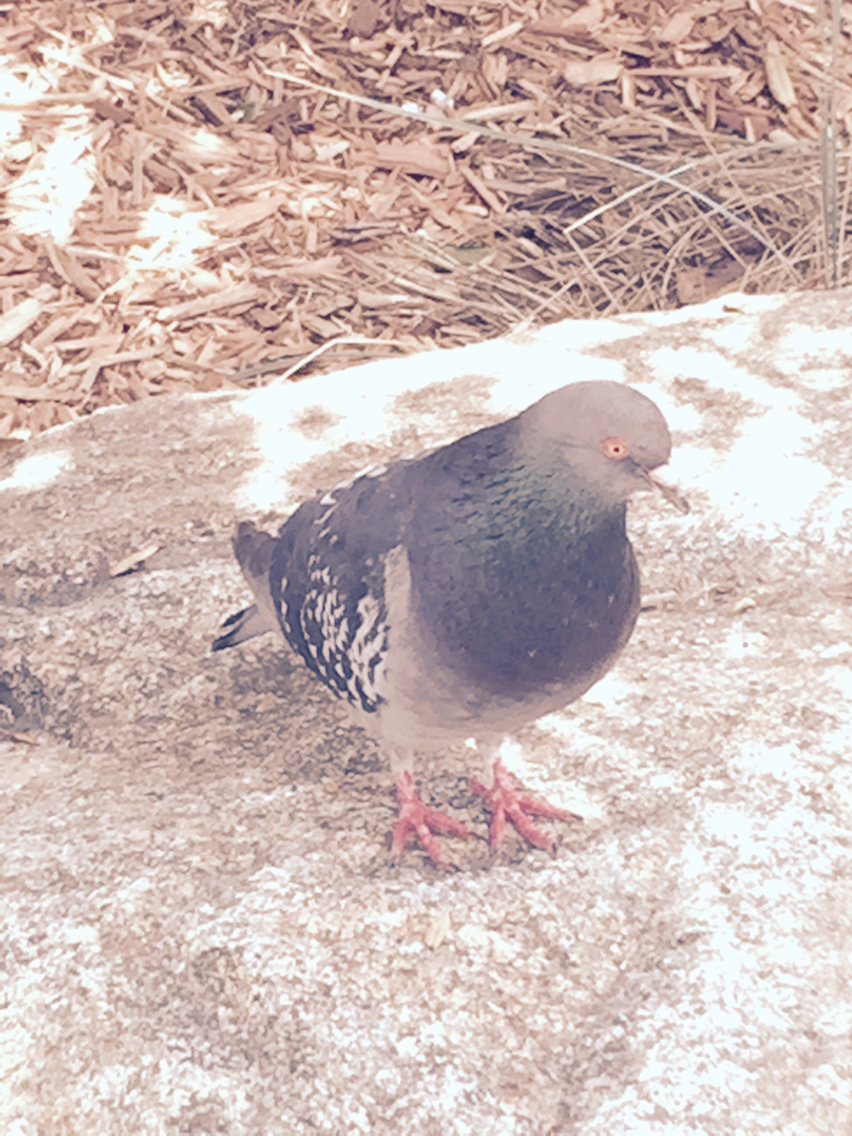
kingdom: Animalia
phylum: Chordata
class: Aves
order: Columbiformes
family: Columbidae
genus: Columba
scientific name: Columba livia
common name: Rock pigeon
